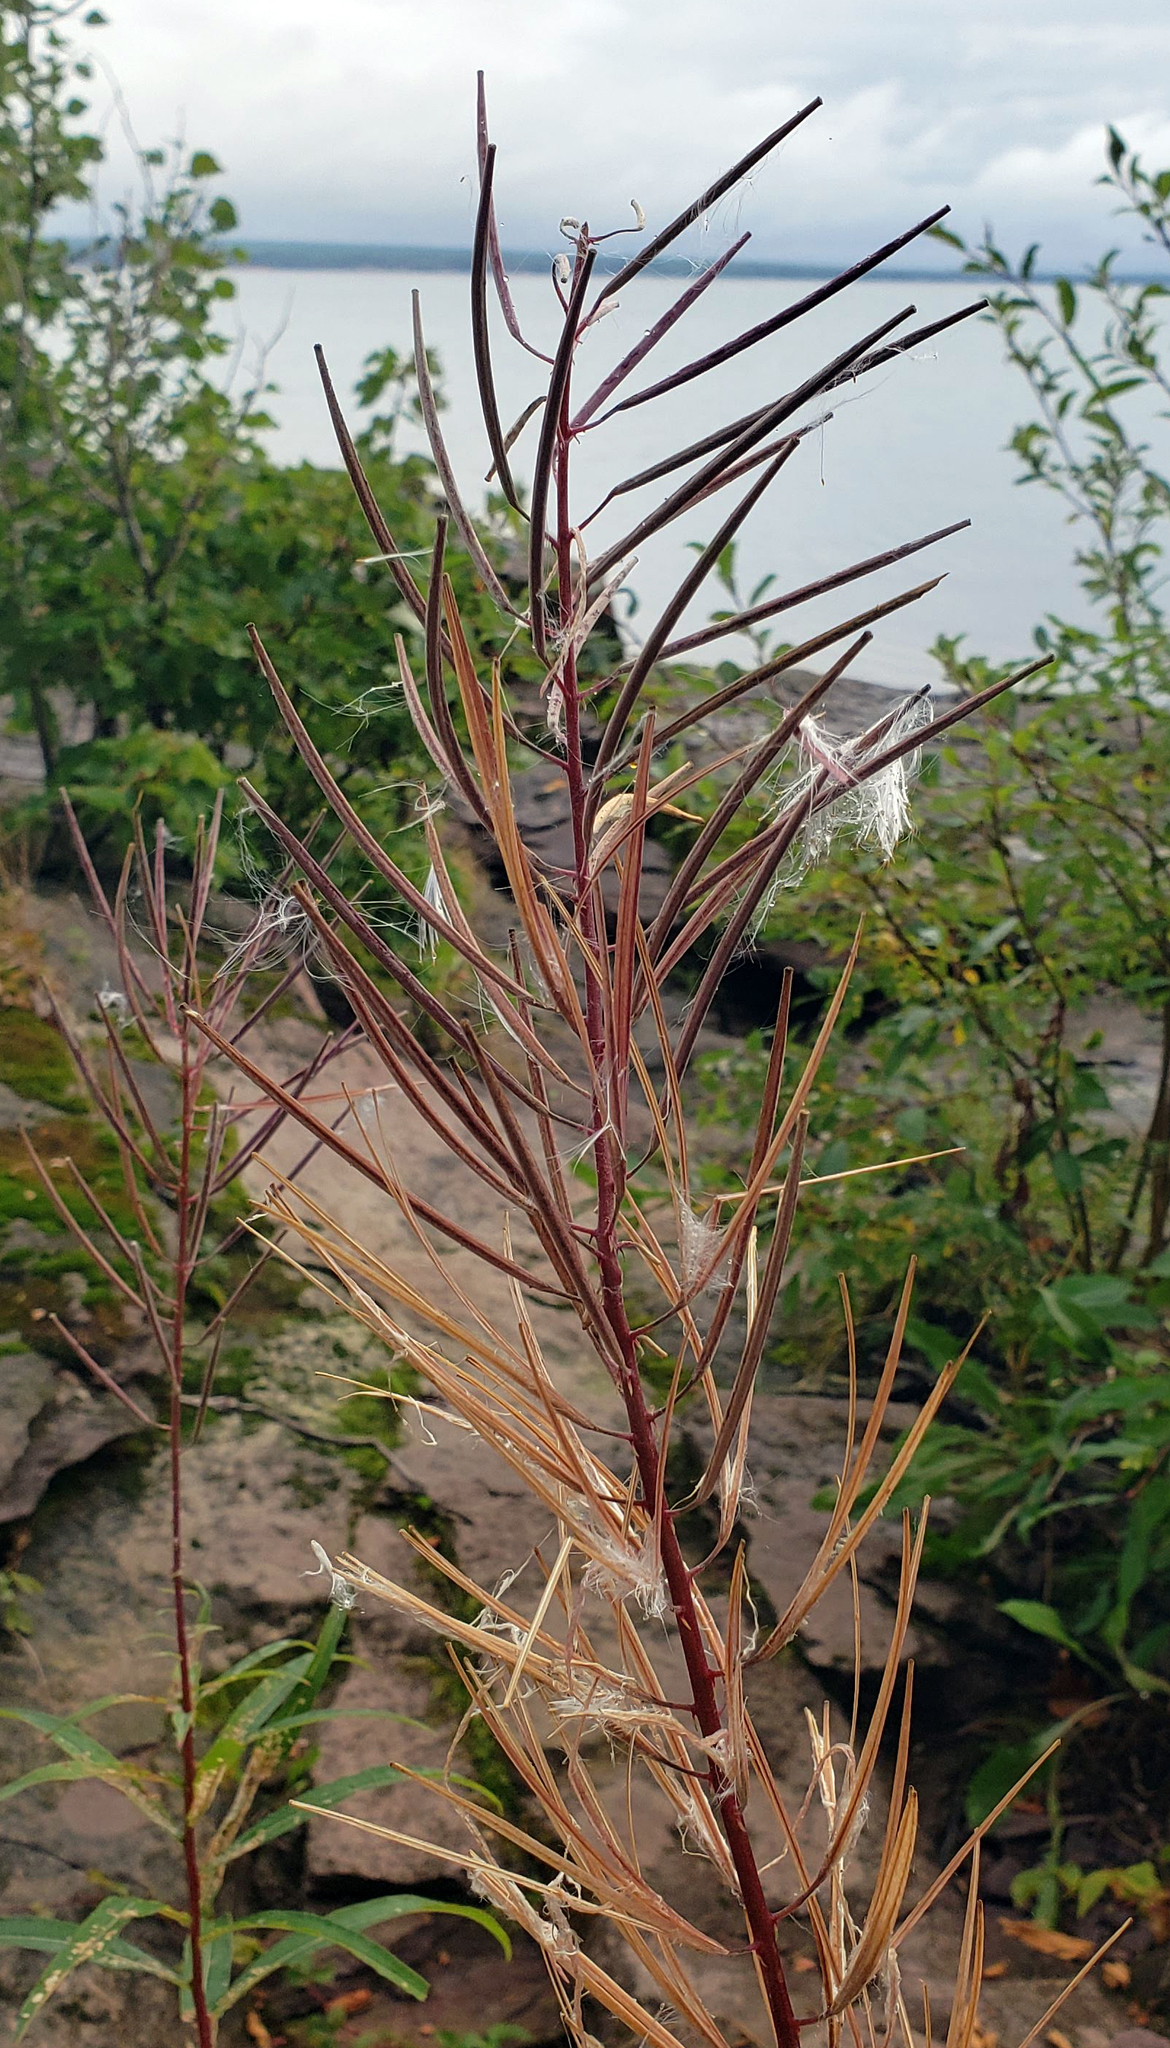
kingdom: Plantae
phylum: Tracheophyta
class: Magnoliopsida
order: Myrtales
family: Onagraceae
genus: Chamaenerion
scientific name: Chamaenerion angustifolium
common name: Fireweed
